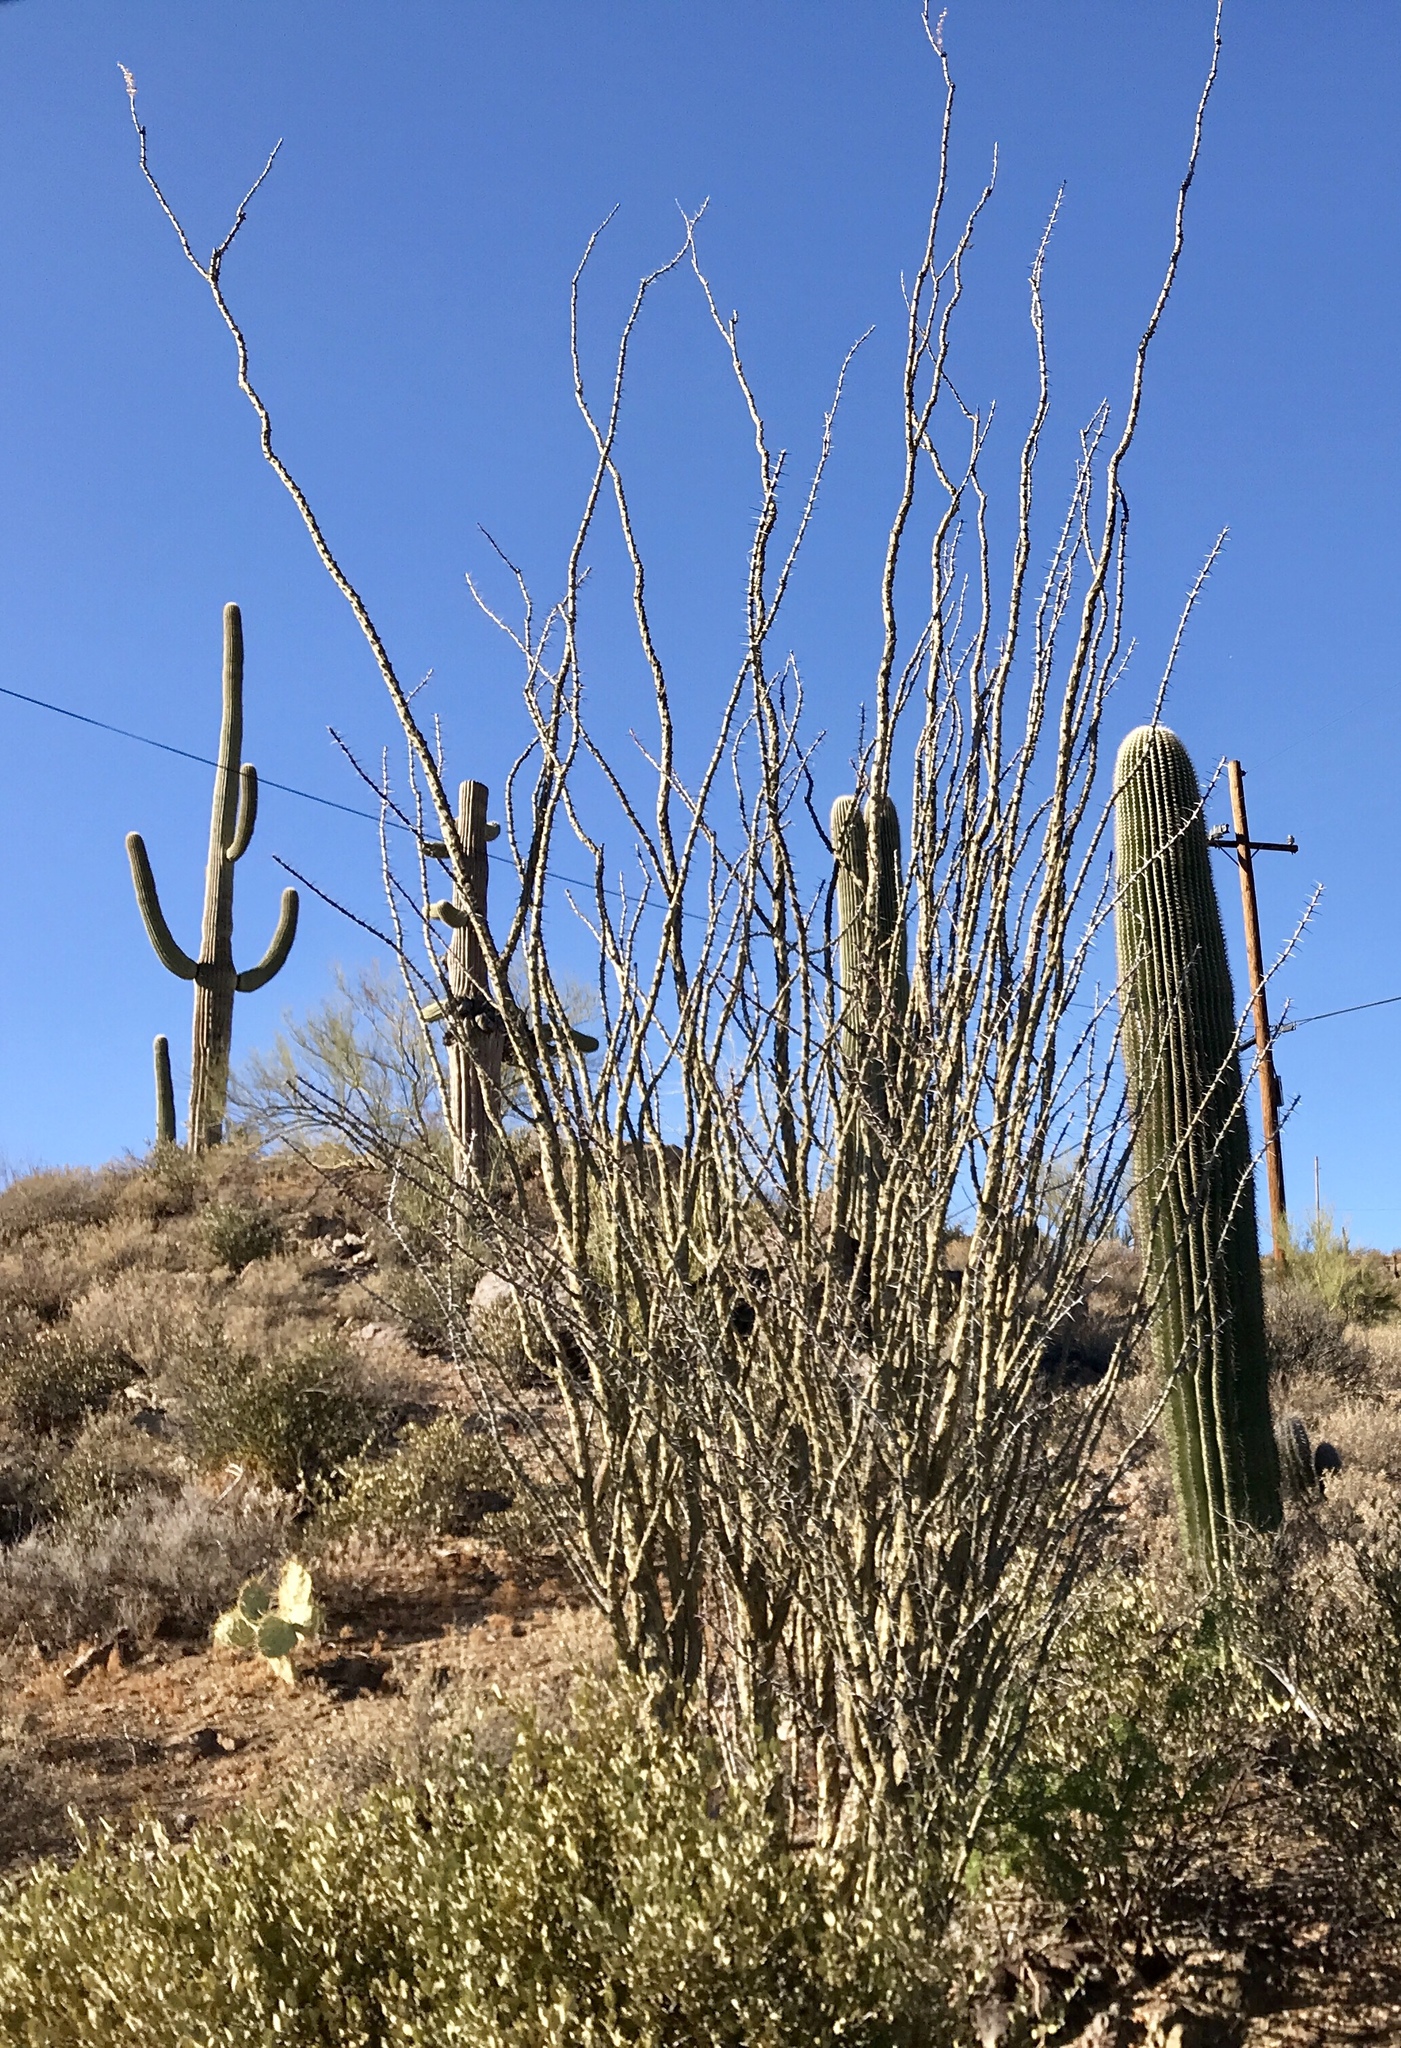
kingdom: Plantae
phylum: Tracheophyta
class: Magnoliopsida
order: Ericales
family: Fouquieriaceae
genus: Fouquieria
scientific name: Fouquieria splendens
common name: Vine-cactus
